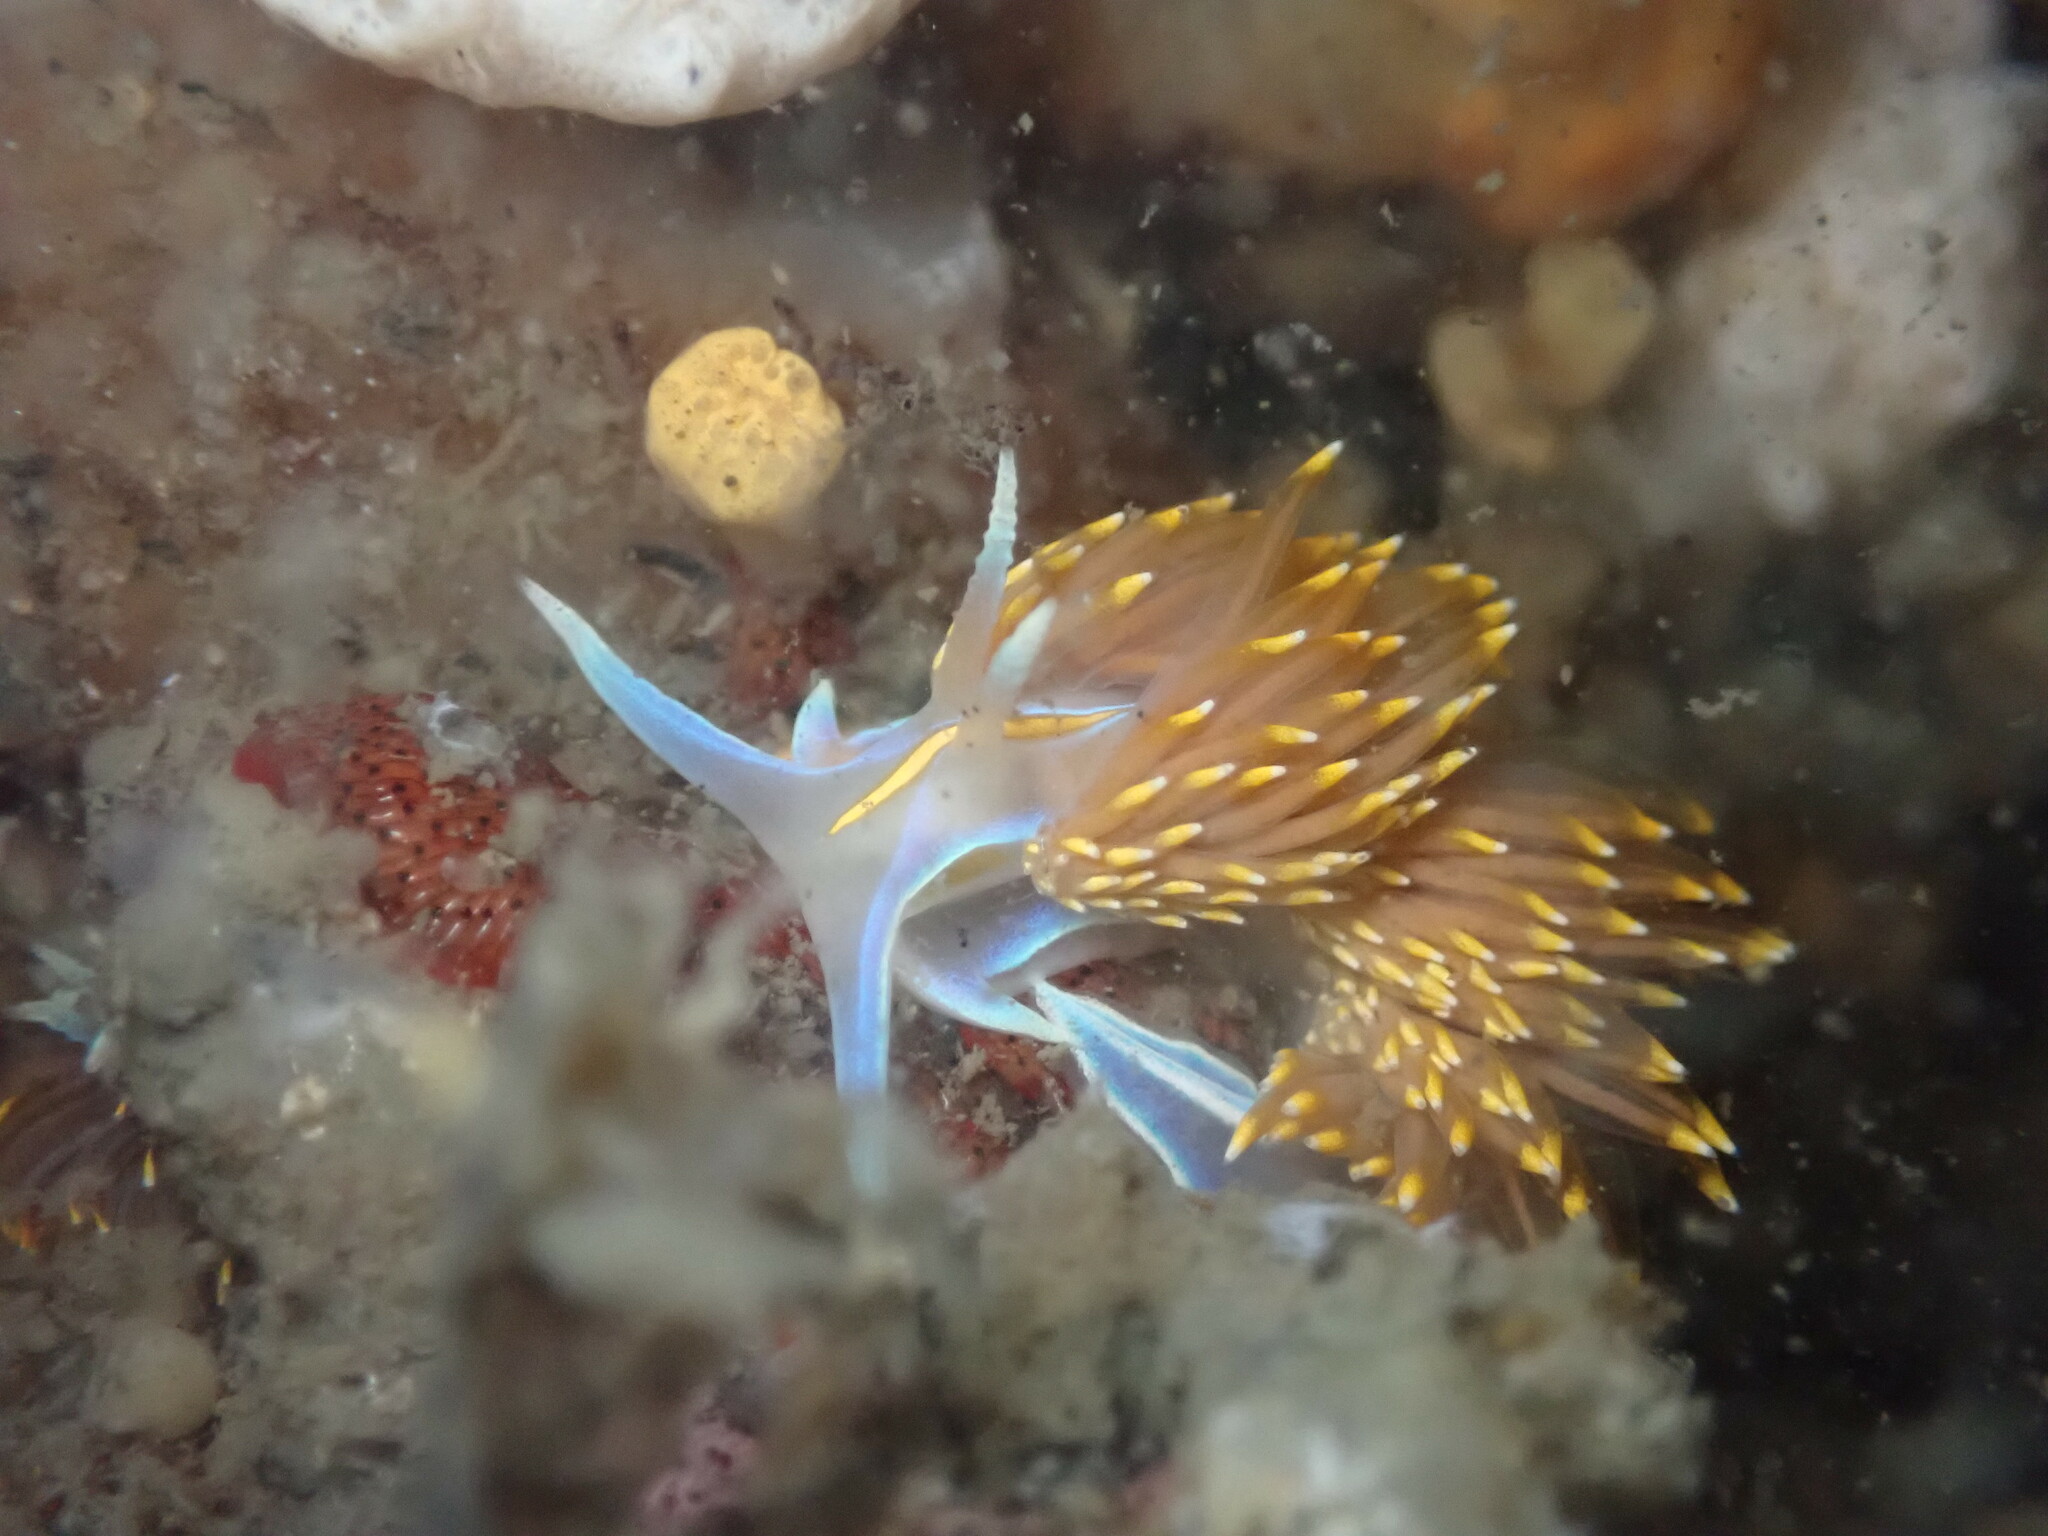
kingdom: Animalia
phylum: Mollusca
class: Gastropoda
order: Nudibranchia
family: Myrrhinidae
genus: Hermissenda
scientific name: Hermissenda opalescens
